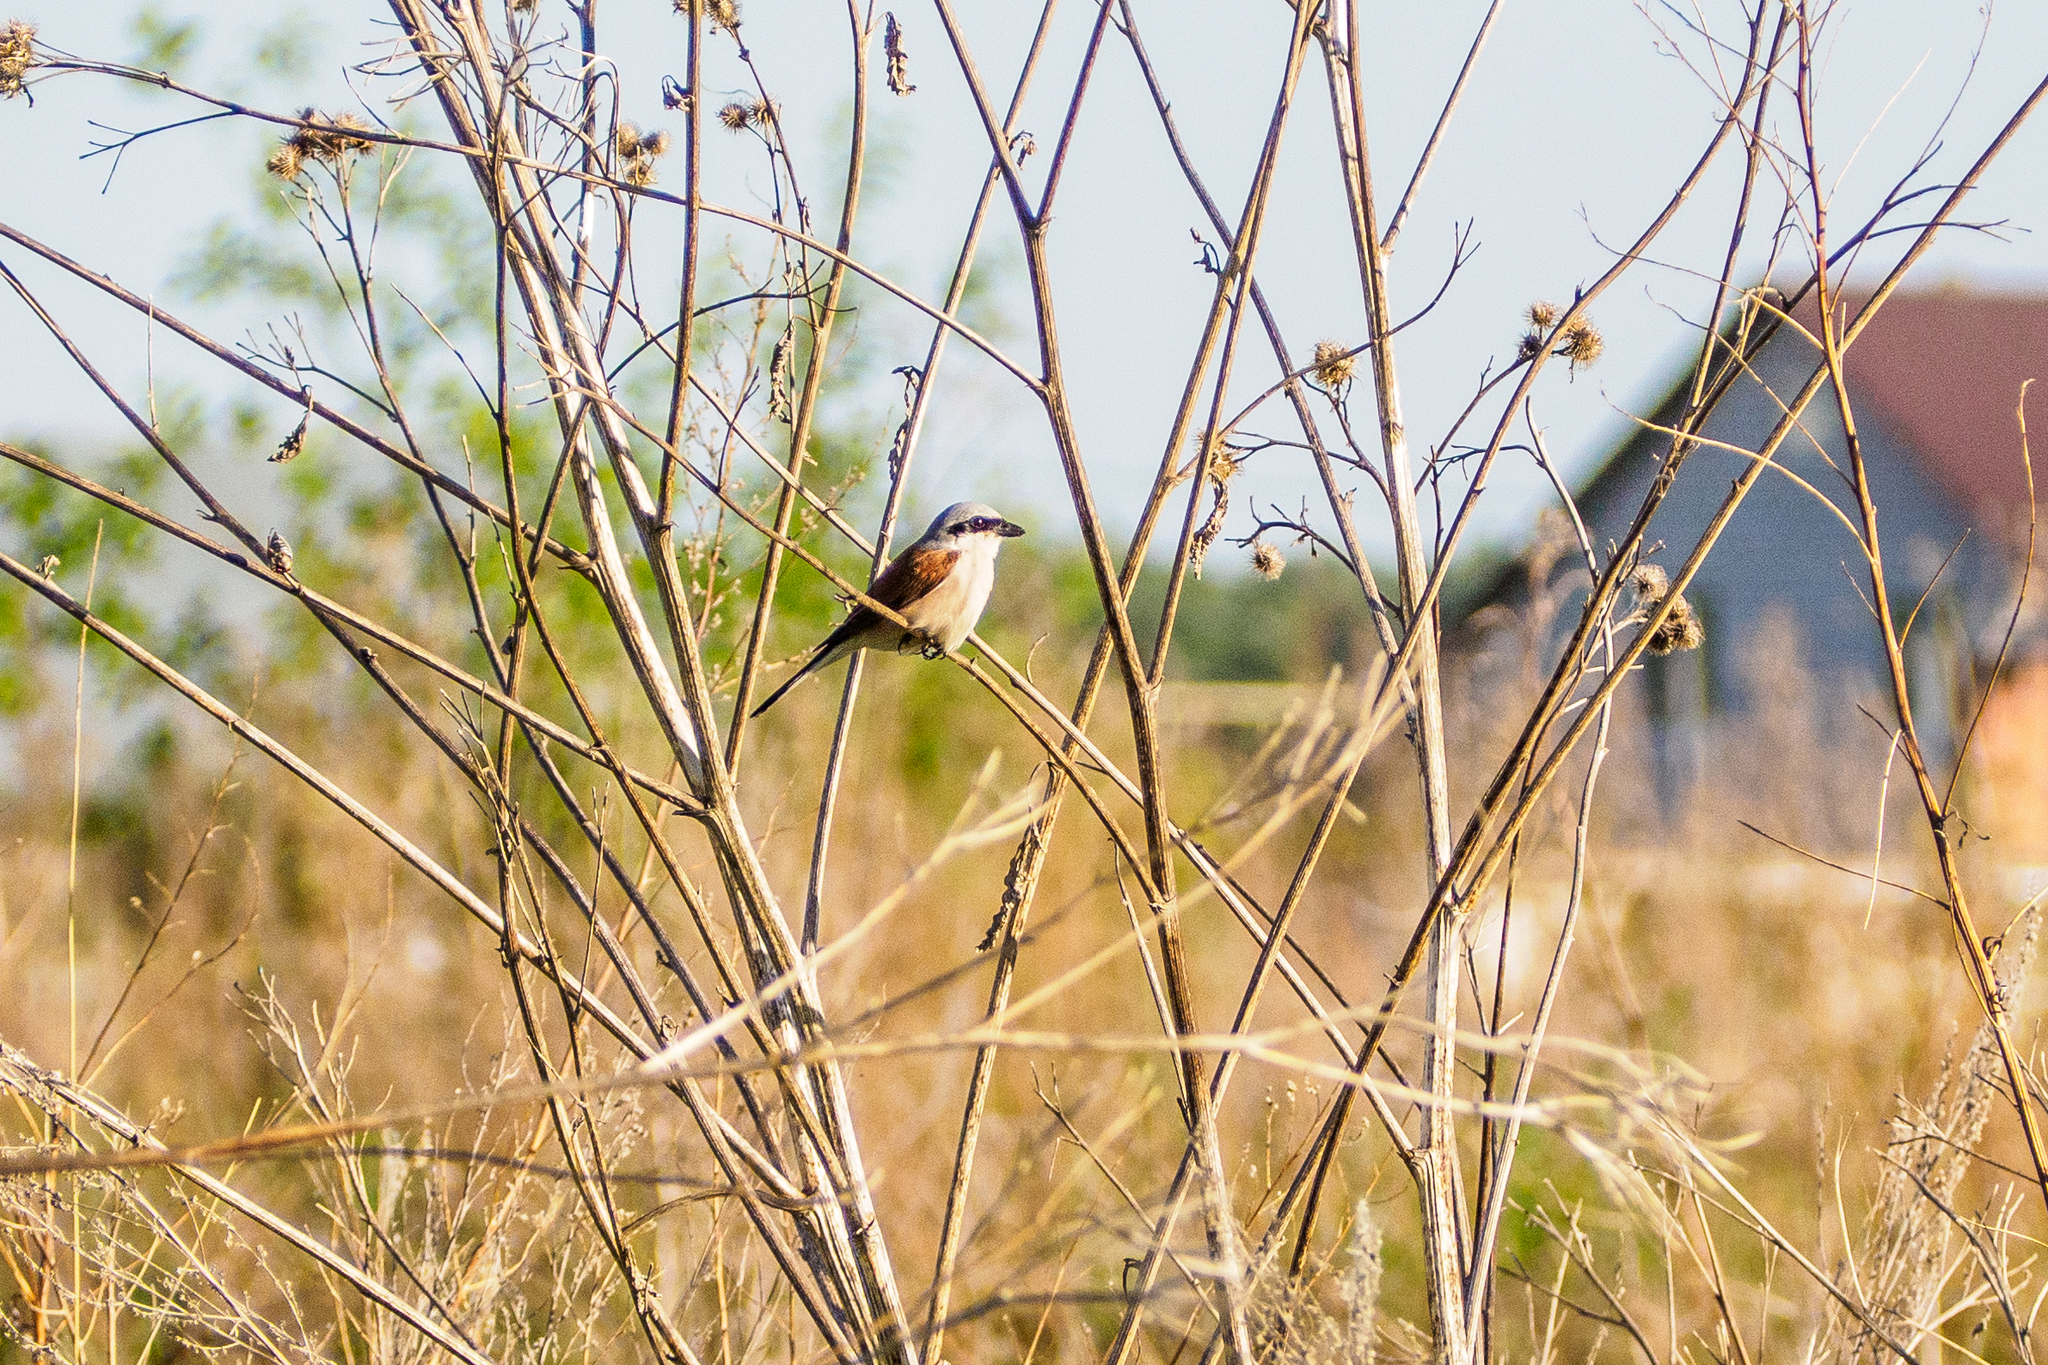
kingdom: Animalia
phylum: Chordata
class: Aves
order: Passeriformes
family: Laniidae
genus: Lanius
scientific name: Lanius collurio
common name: Red-backed shrike
